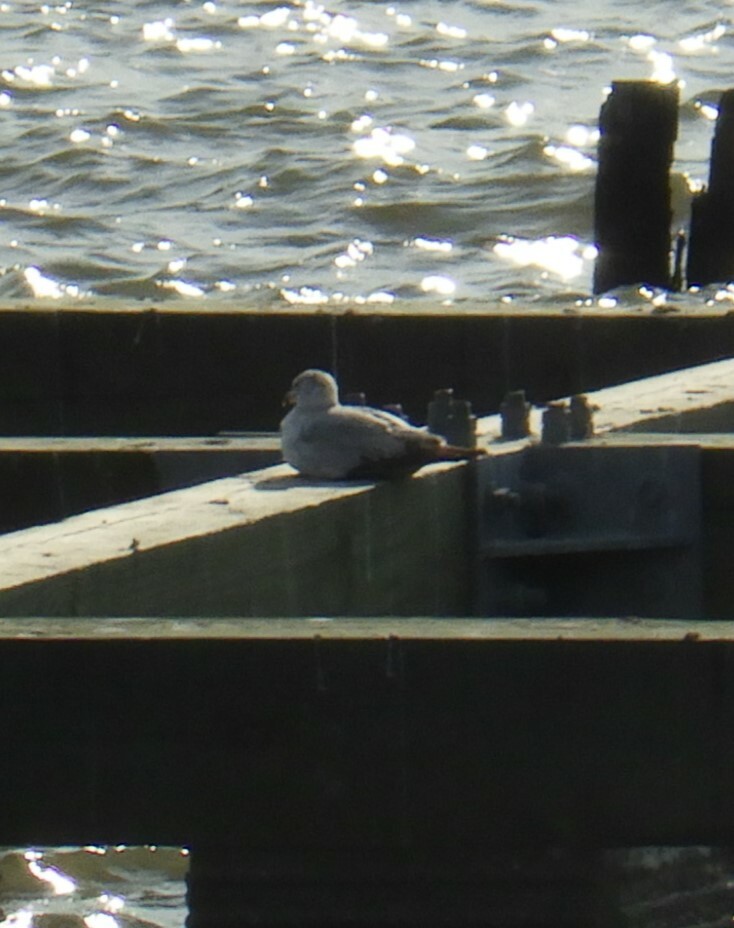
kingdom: Animalia
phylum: Chordata
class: Aves
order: Charadriiformes
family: Laridae
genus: Larus
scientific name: Larus delawarensis
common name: Ring-billed gull
